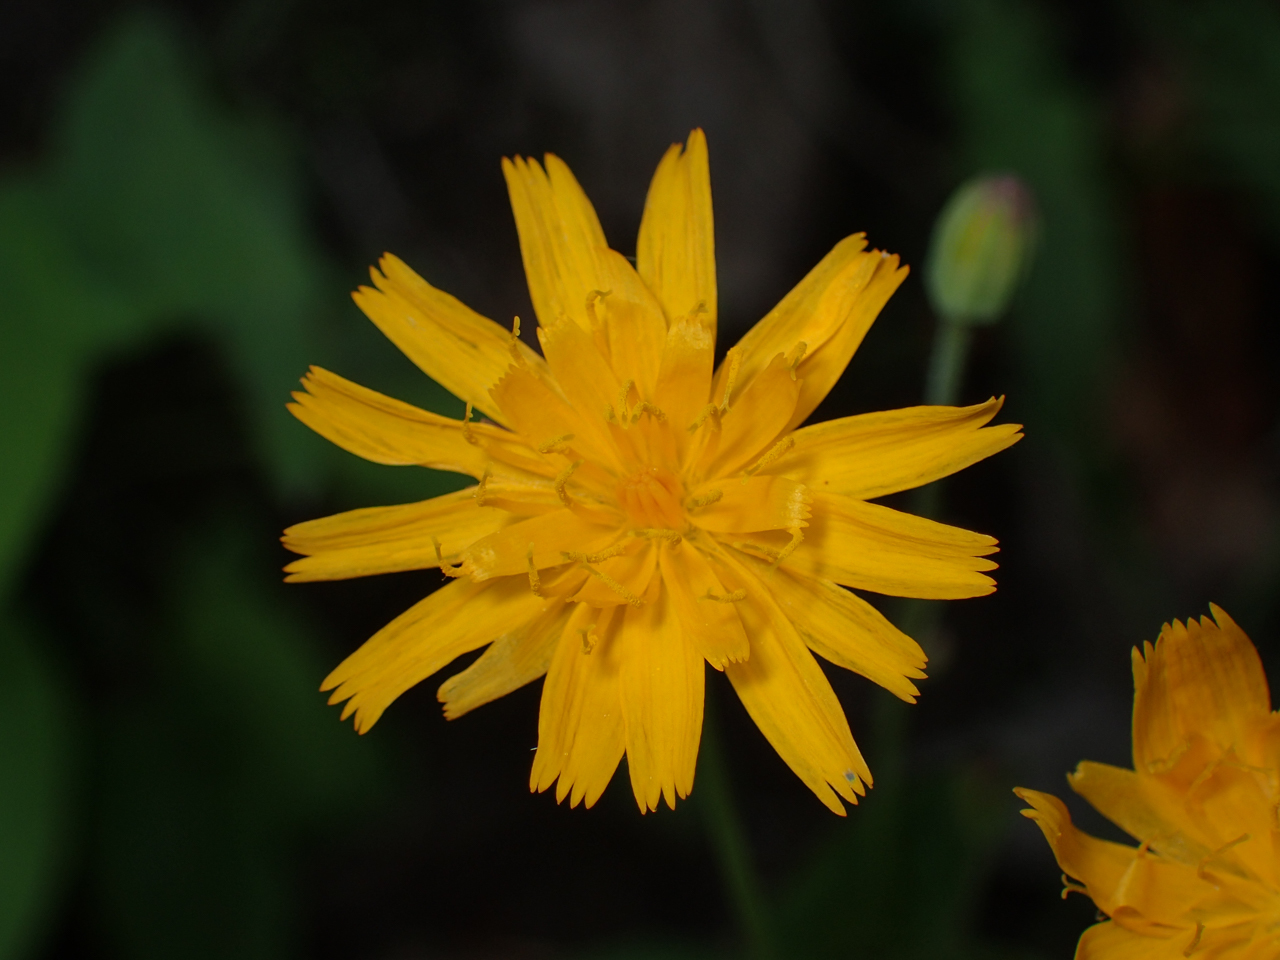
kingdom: Plantae
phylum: Tracheophyta
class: Magnoliopsida
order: Asterales
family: Asteraceae
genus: Krigia
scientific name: Krigia biflora
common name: Orange dwarf-dandelion
